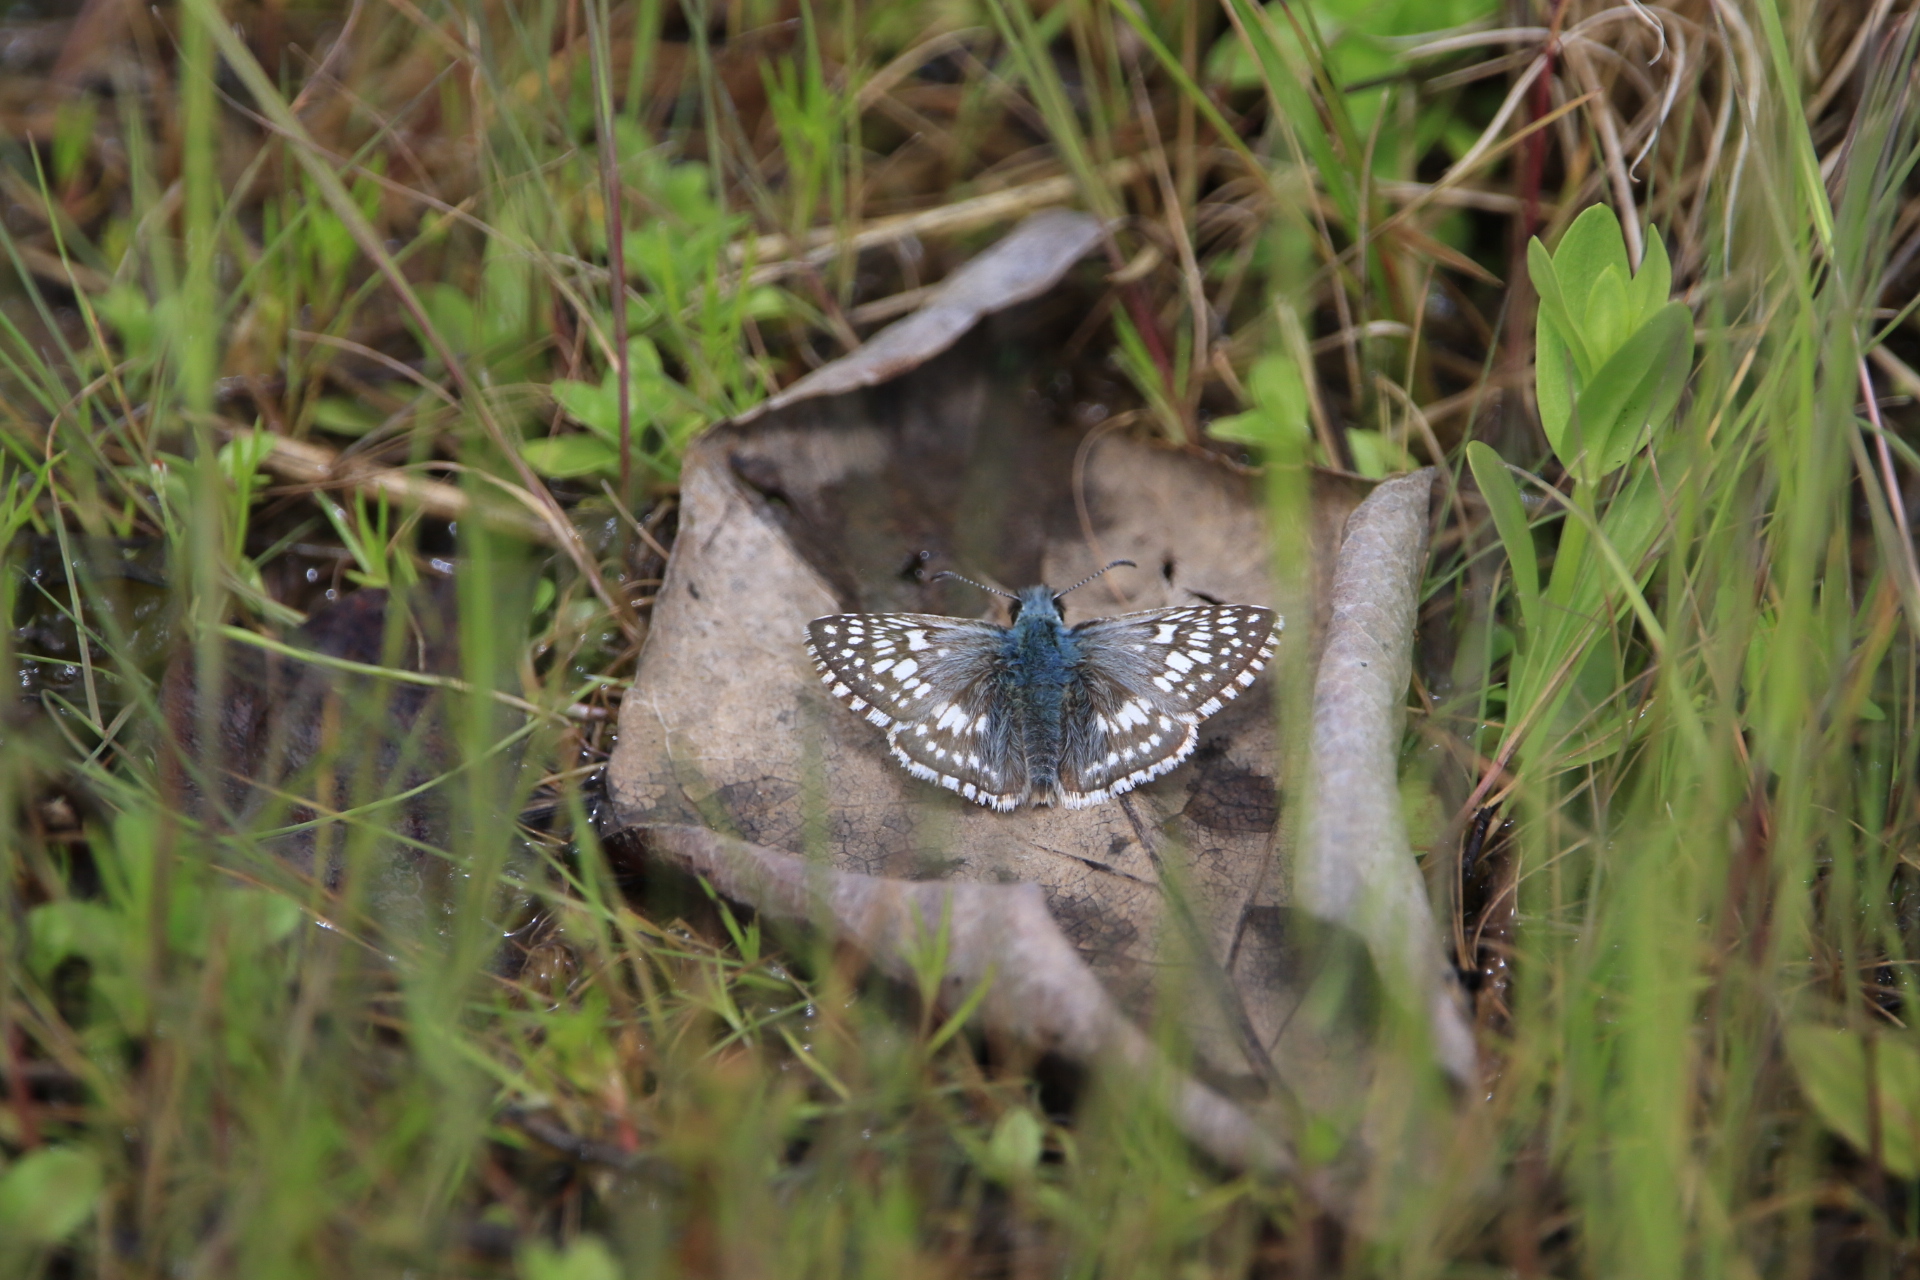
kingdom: Animalia
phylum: Arthropoda
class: Insecta
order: Lepidoptera
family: Hesperiidae
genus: Burnsius
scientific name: Burnsius communis
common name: Common checkered-skipper
